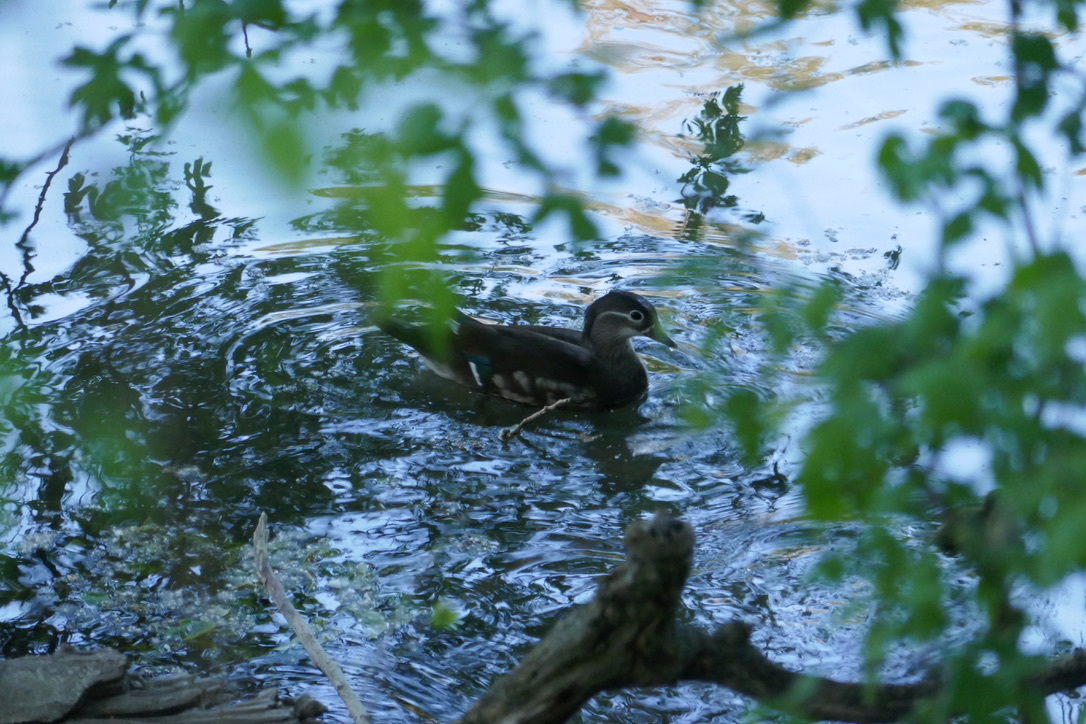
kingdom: Animalia
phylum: Chordata
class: Aves
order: Anseriformes
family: Anatidae
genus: Aix
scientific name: Aix galericulata
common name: Mandarin duck
